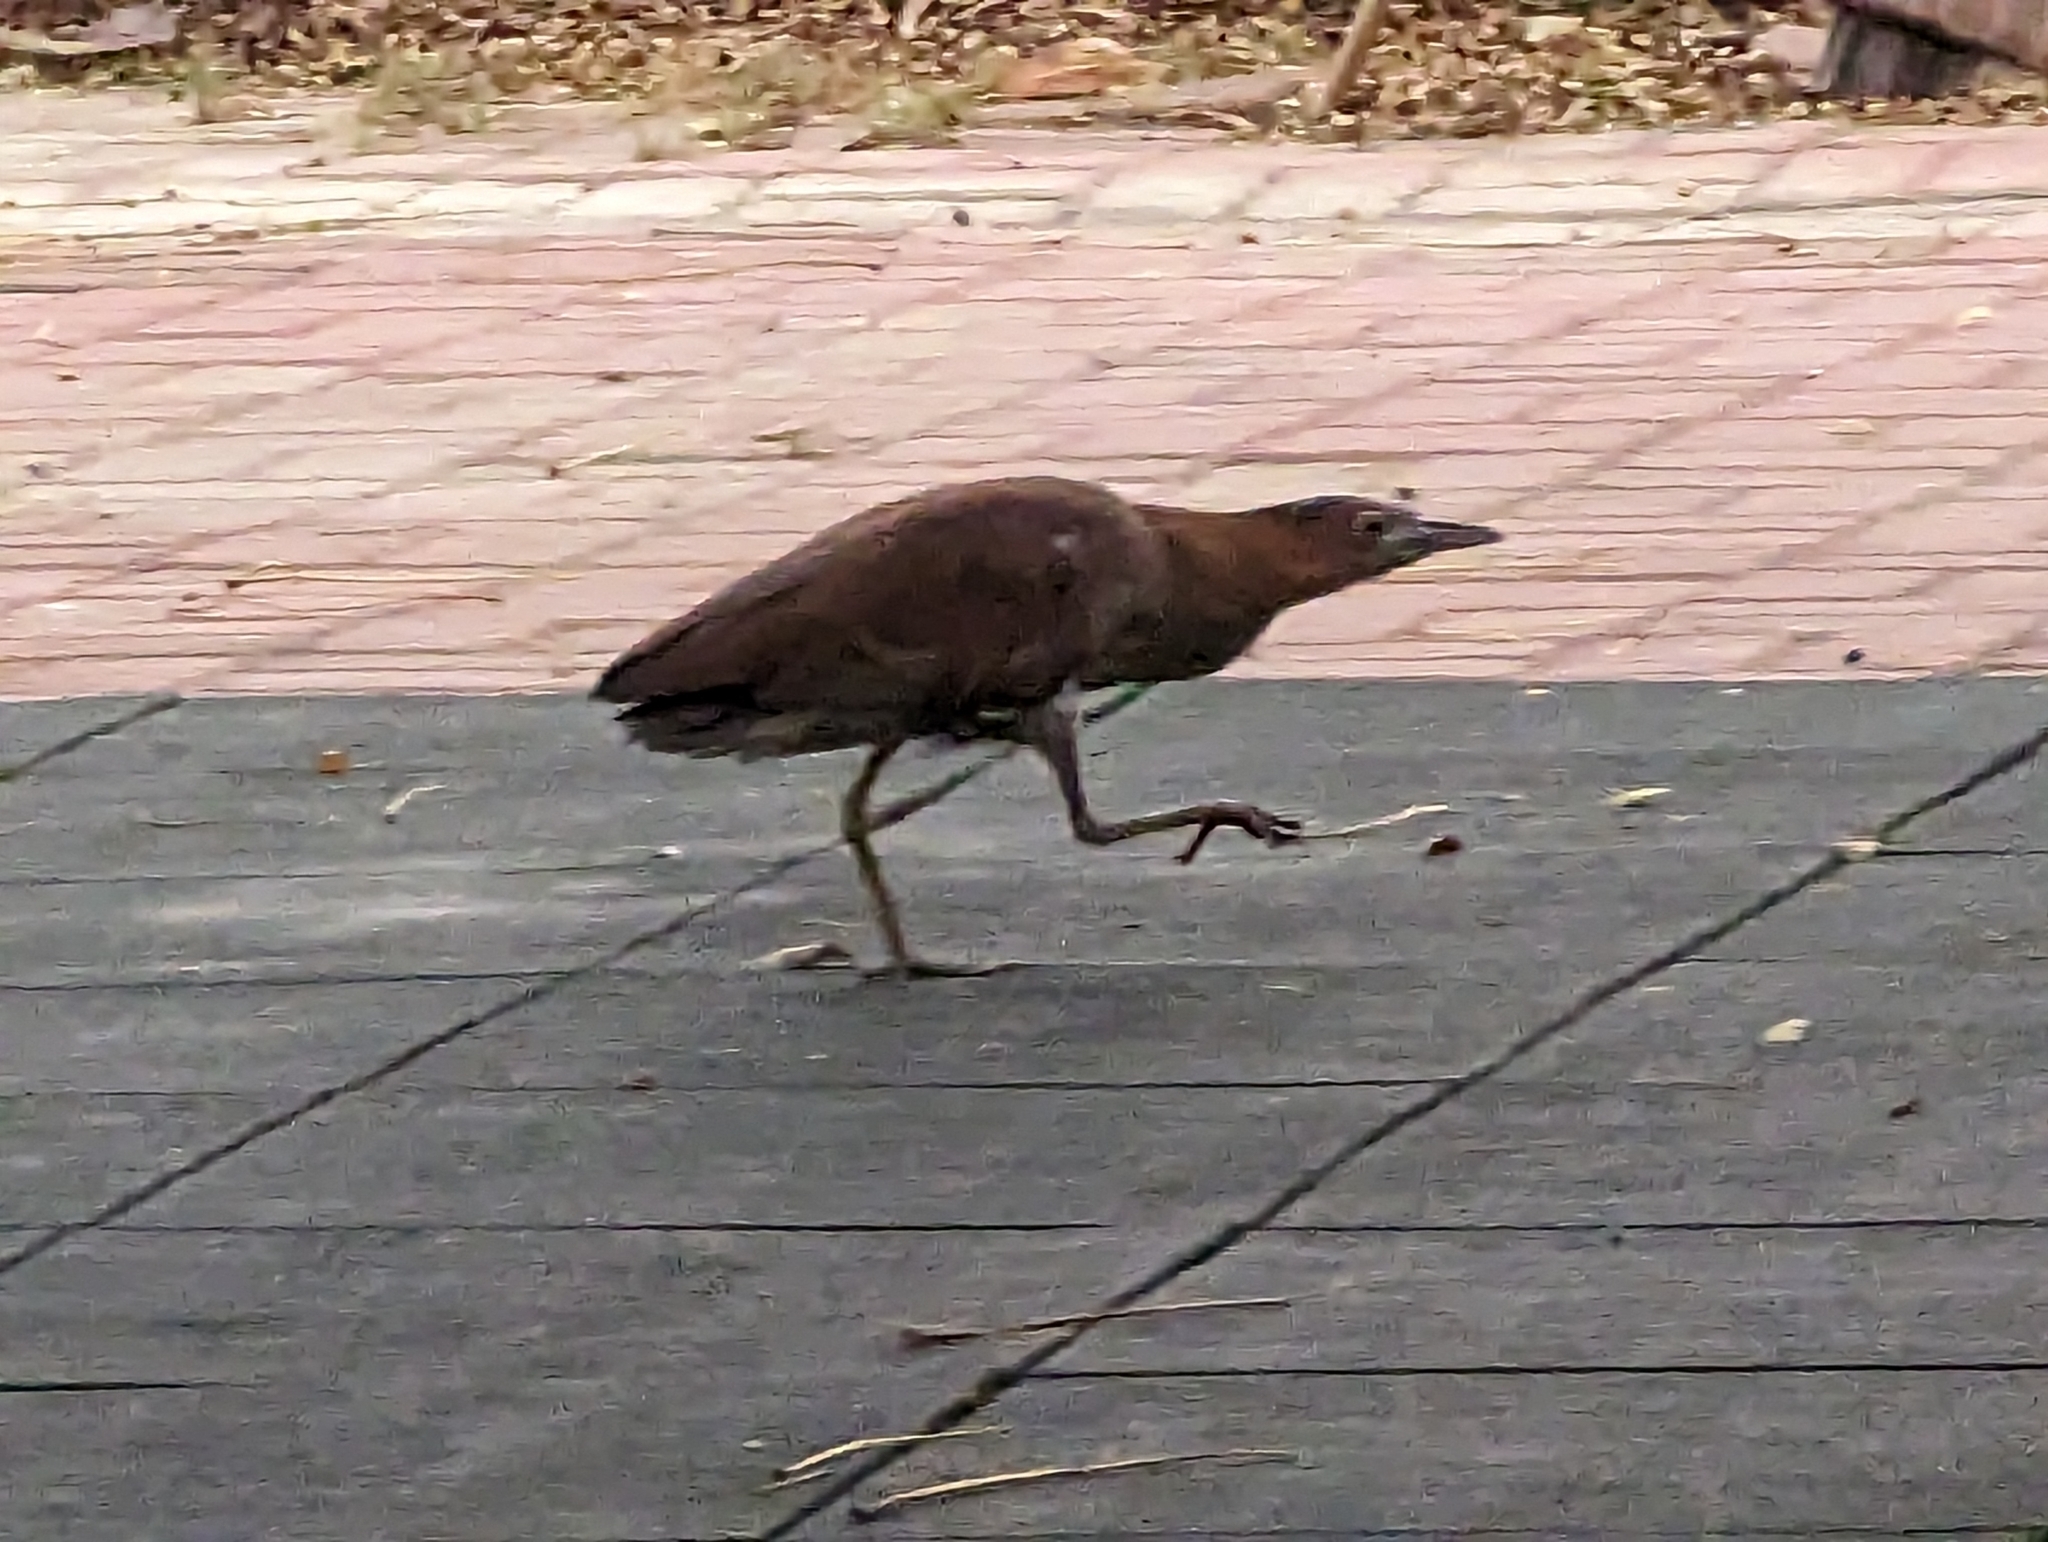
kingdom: Animalia
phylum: Chordata
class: Aves
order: Pelecaniformes
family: Ardeidae
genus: Gorsachius
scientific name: Gorsachius melanolophus
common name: Malayan night heron
